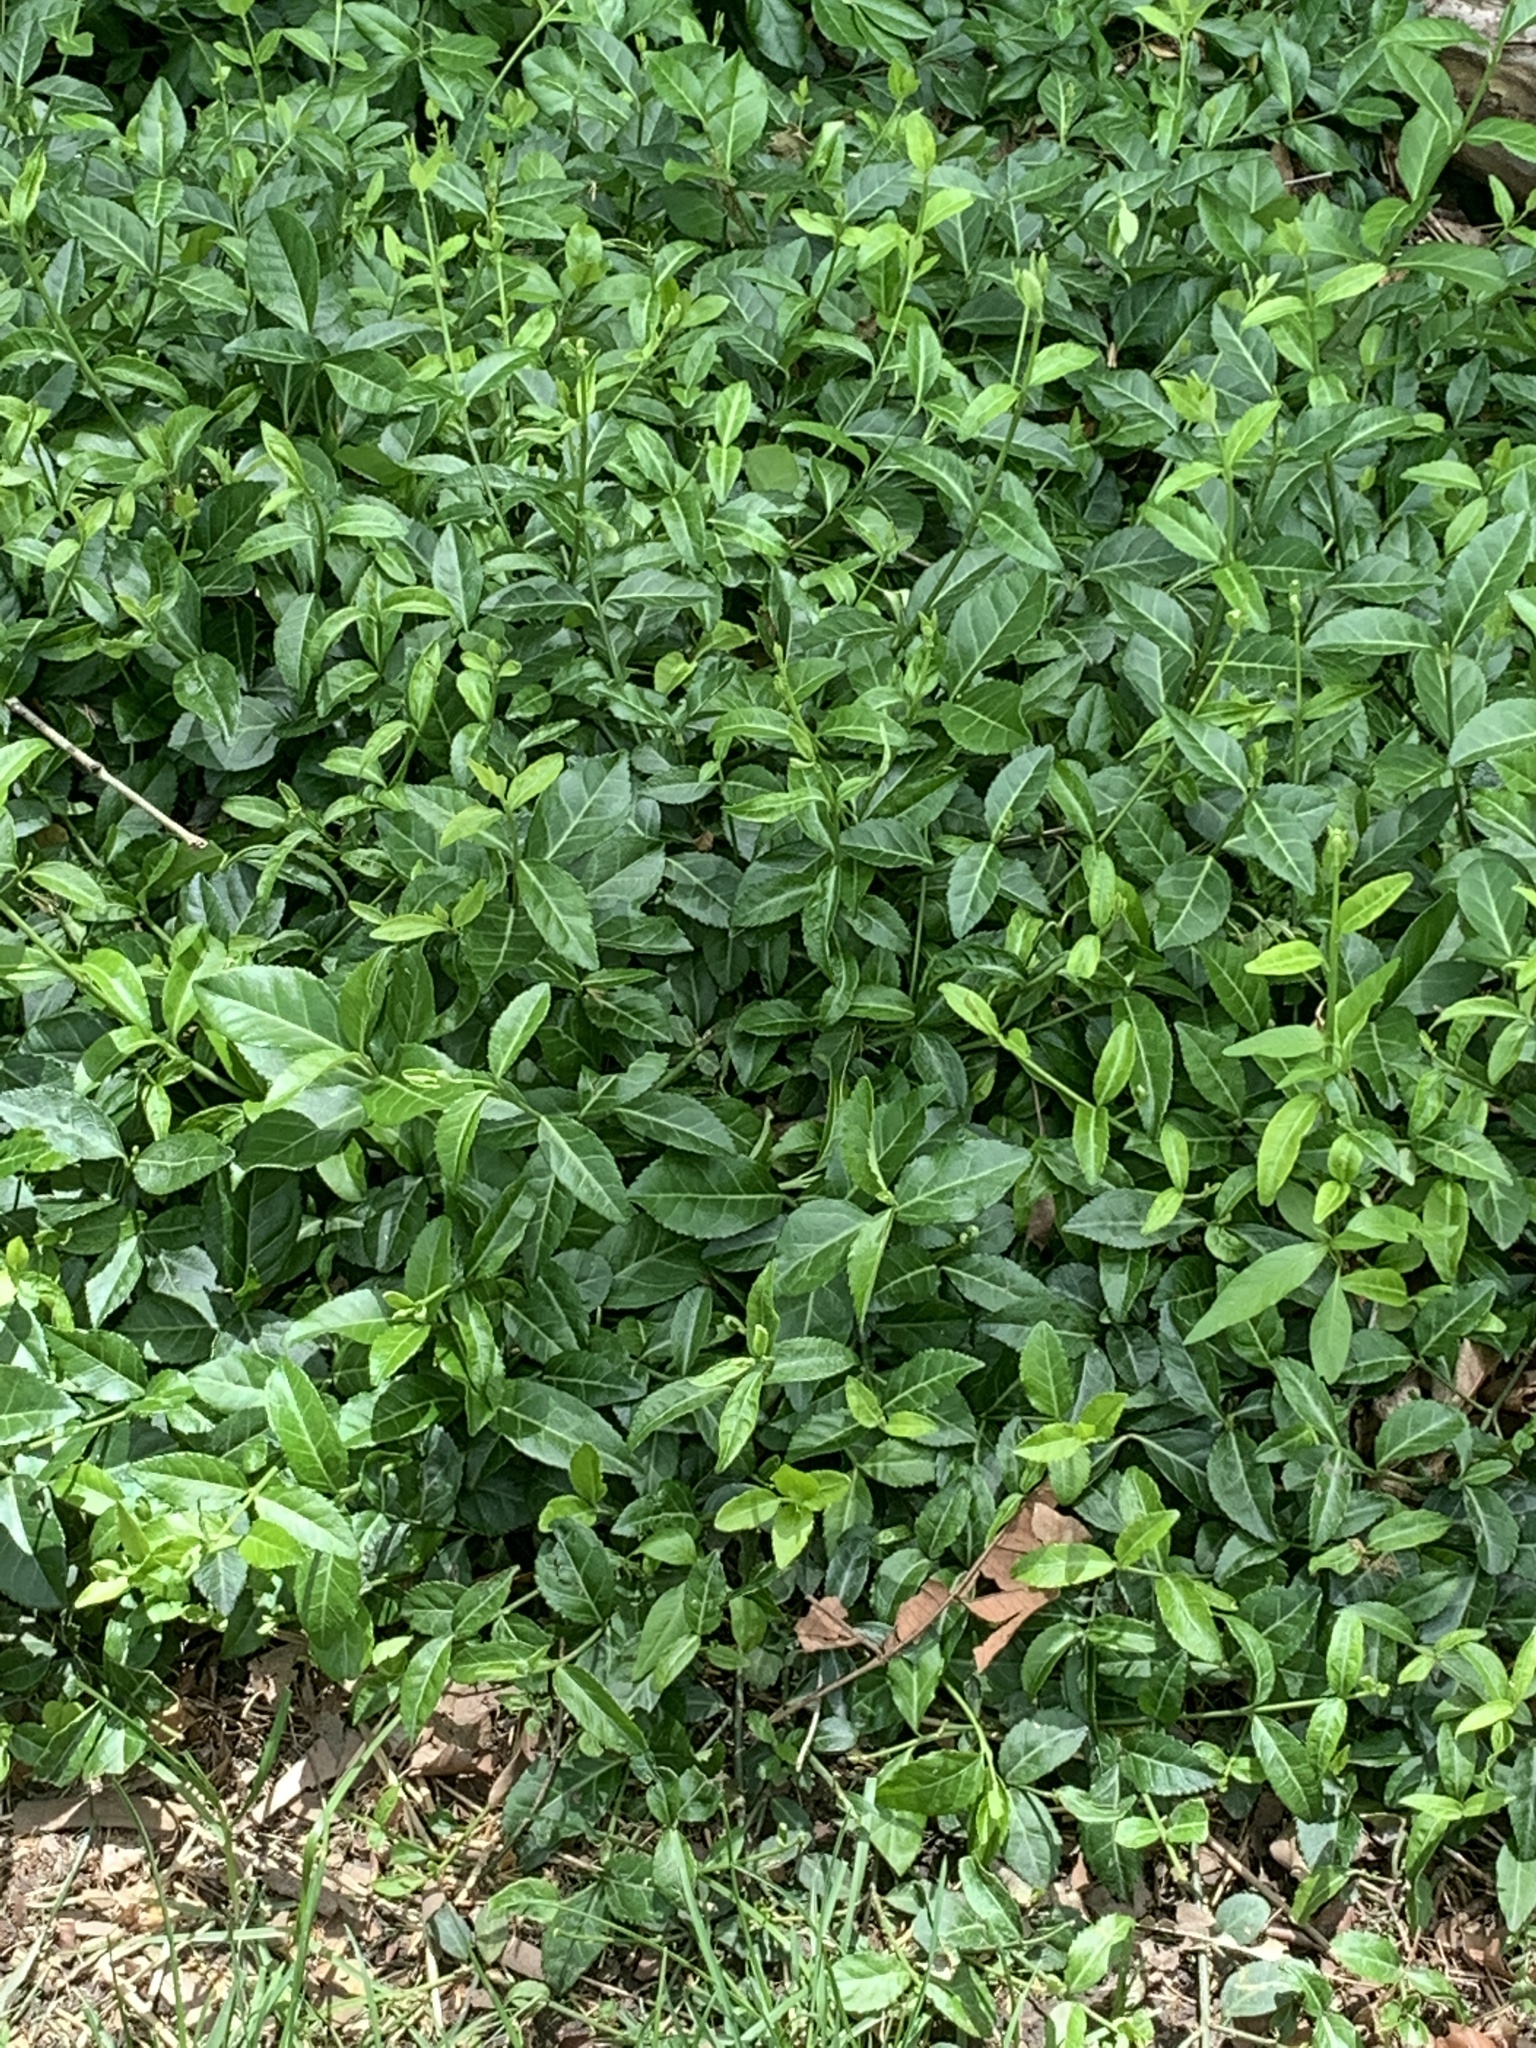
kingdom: Plantae
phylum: Tracheophyta
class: Magnoliopsida
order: Celastrales
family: Celastraceae
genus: Euonymus
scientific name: Euonymus fortunei
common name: Climbing euonymus
